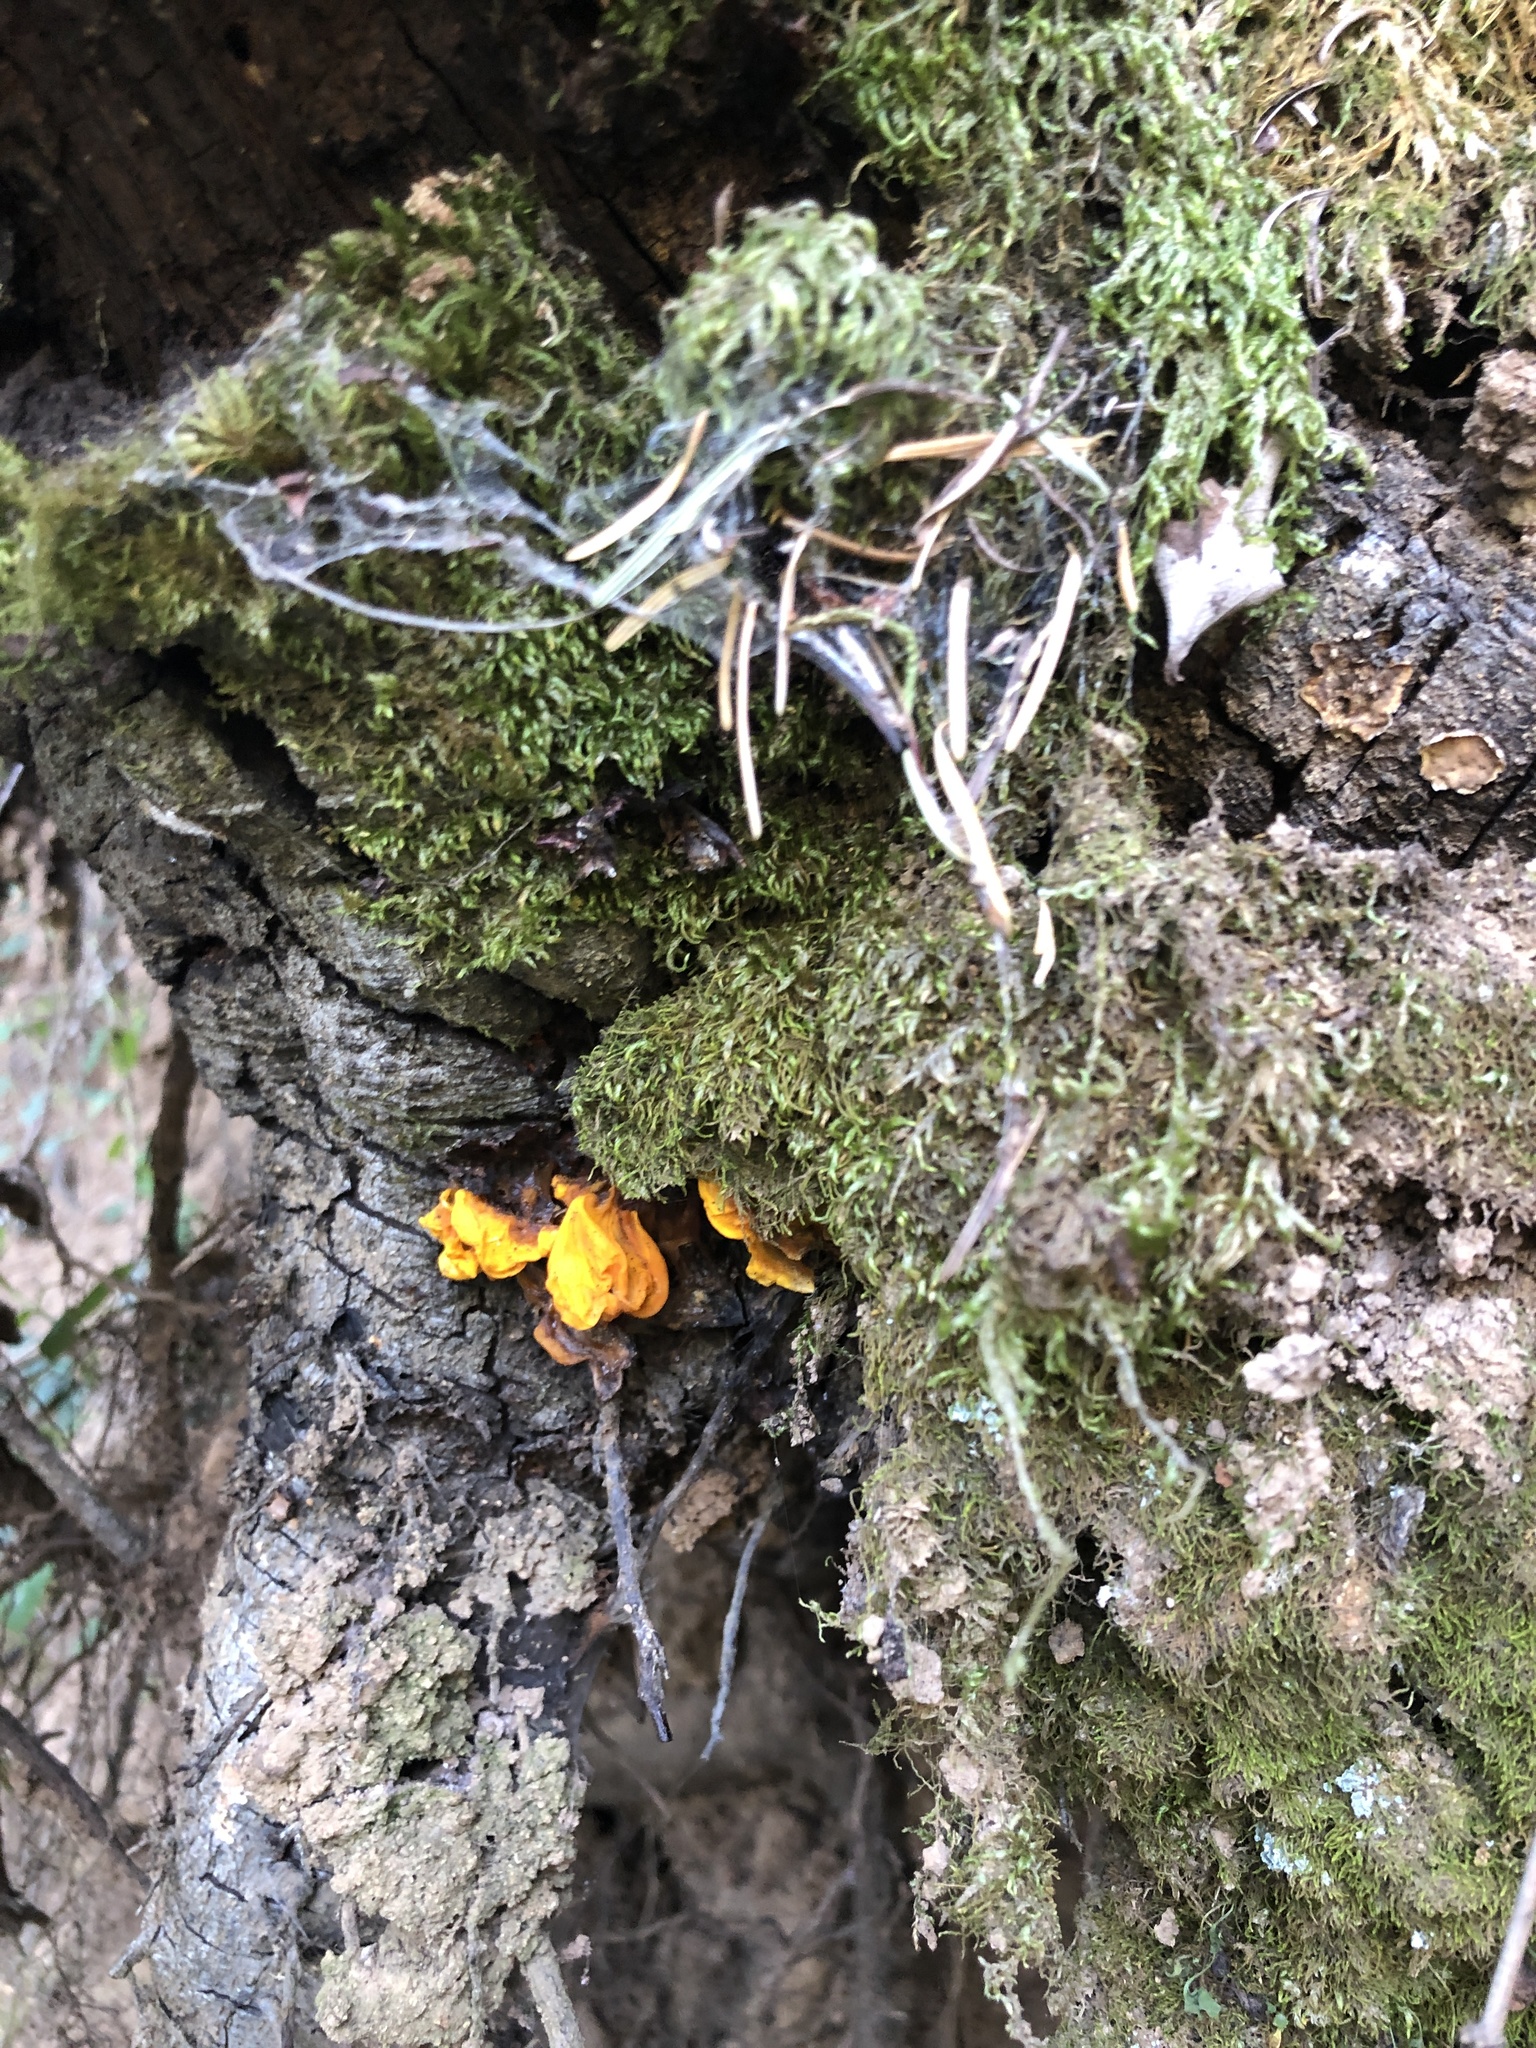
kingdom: Fungi
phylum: Basidiomycota
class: Tremellomycetes
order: Tremellales
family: Naemateliaceae
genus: Naematelia
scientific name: Naematelia aurantia
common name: Golden ear
